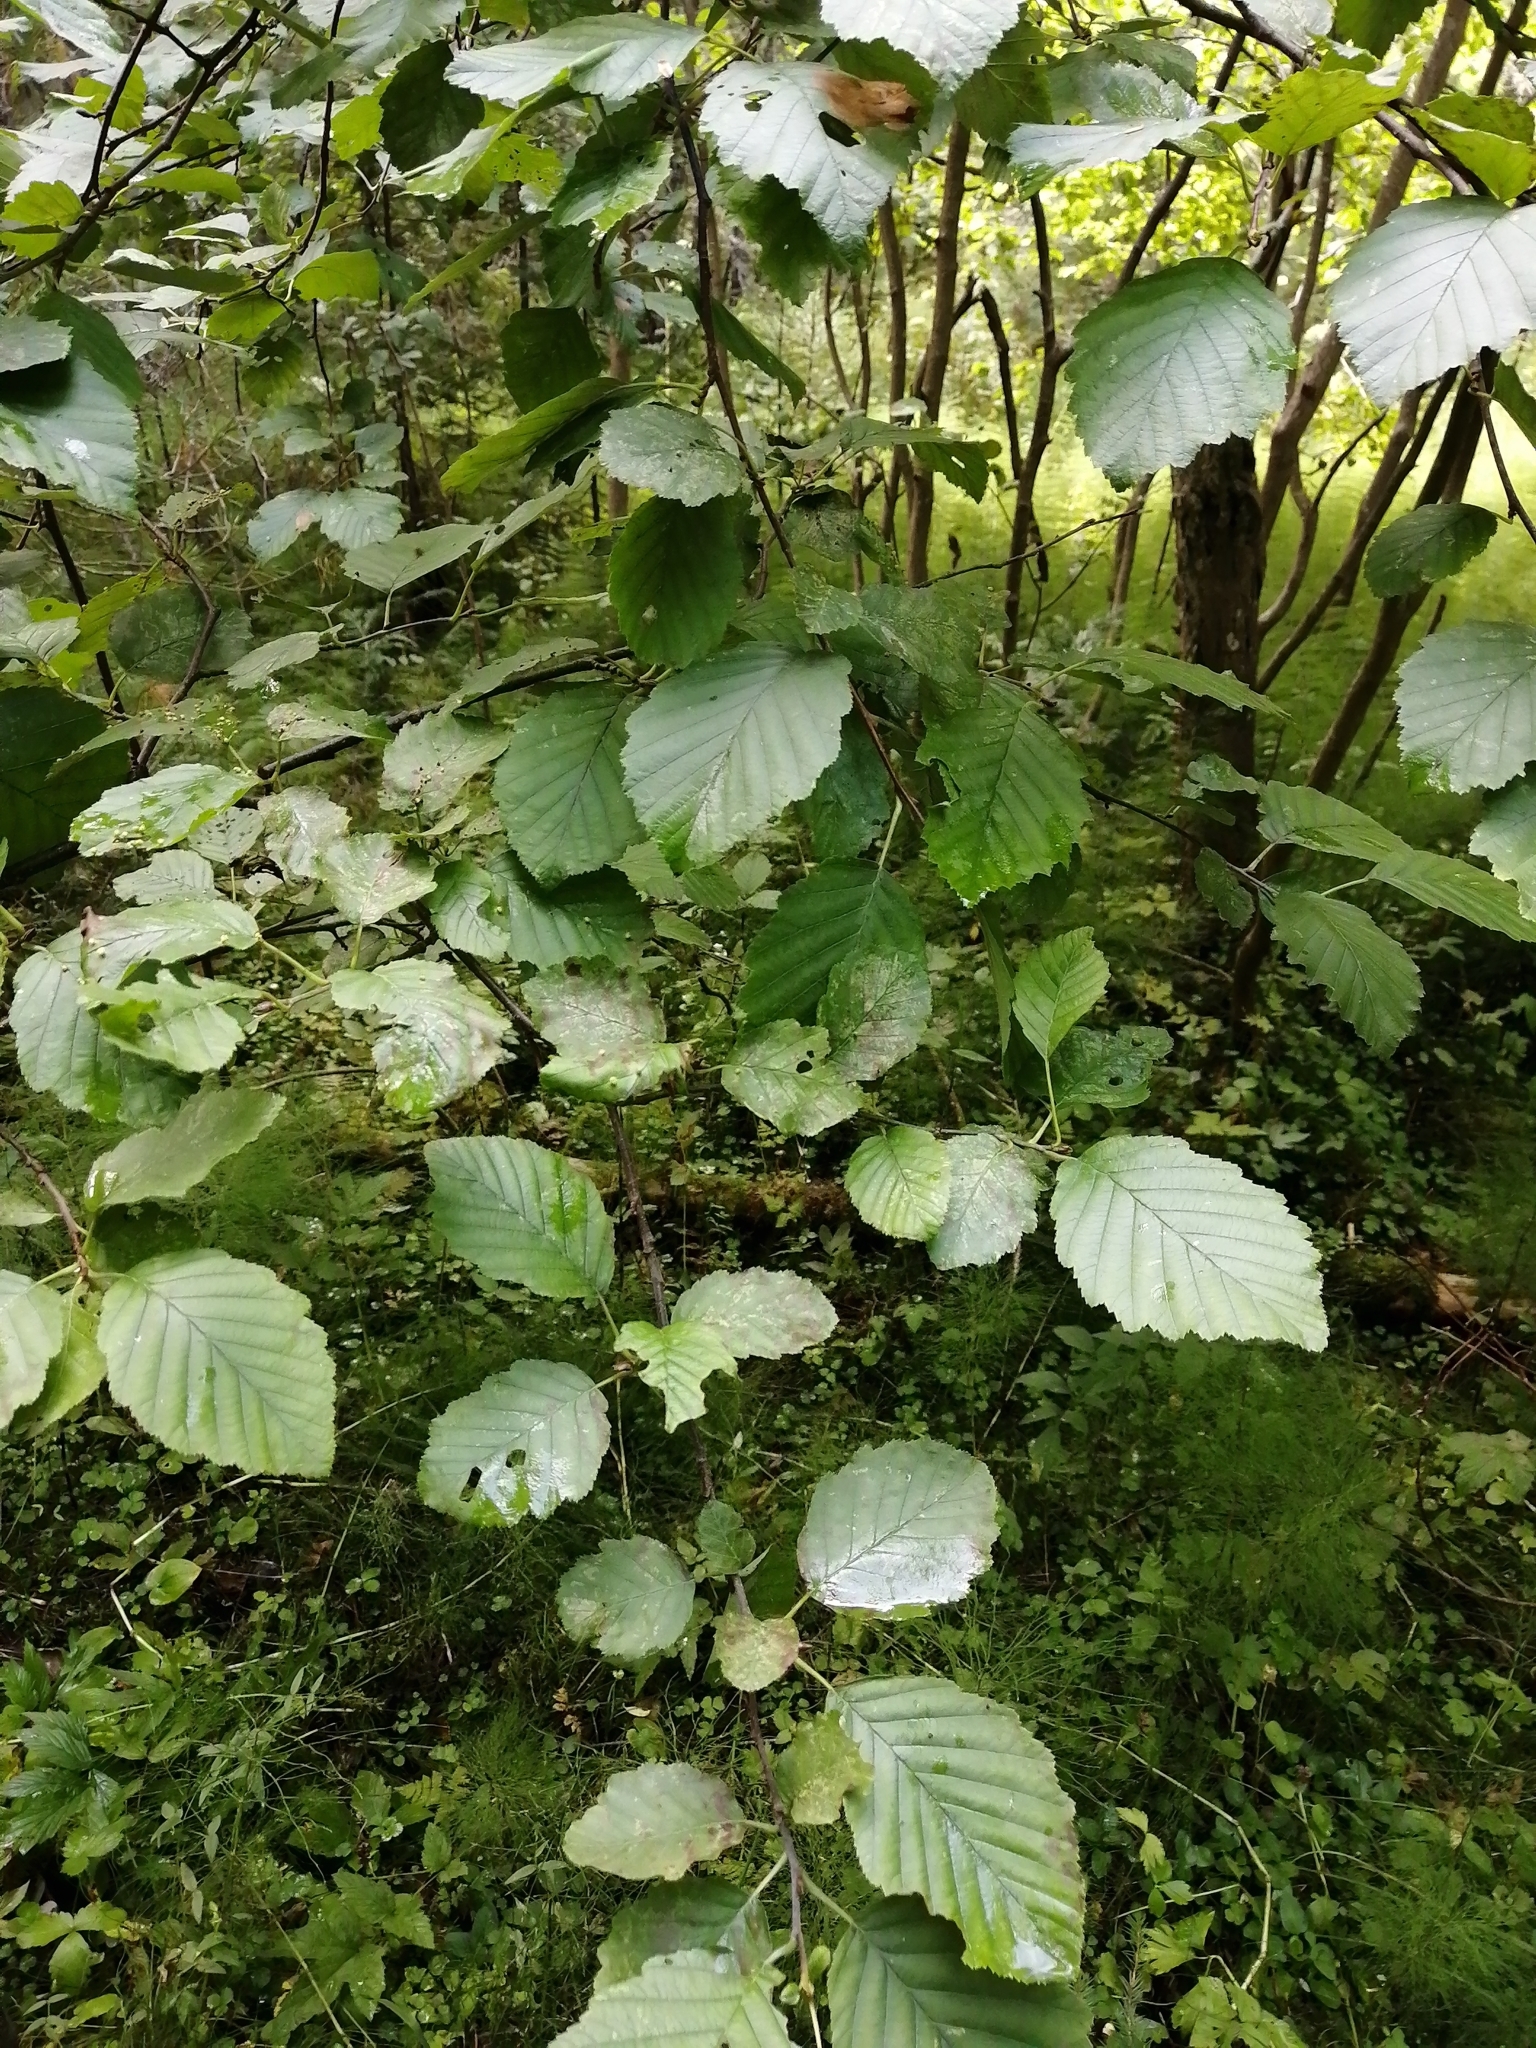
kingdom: Plantae
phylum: Tracheophyta
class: Magnoliopsida
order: Fagales
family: Betulaceae
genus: Alnus
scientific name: Alnus incana
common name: Grey alder
